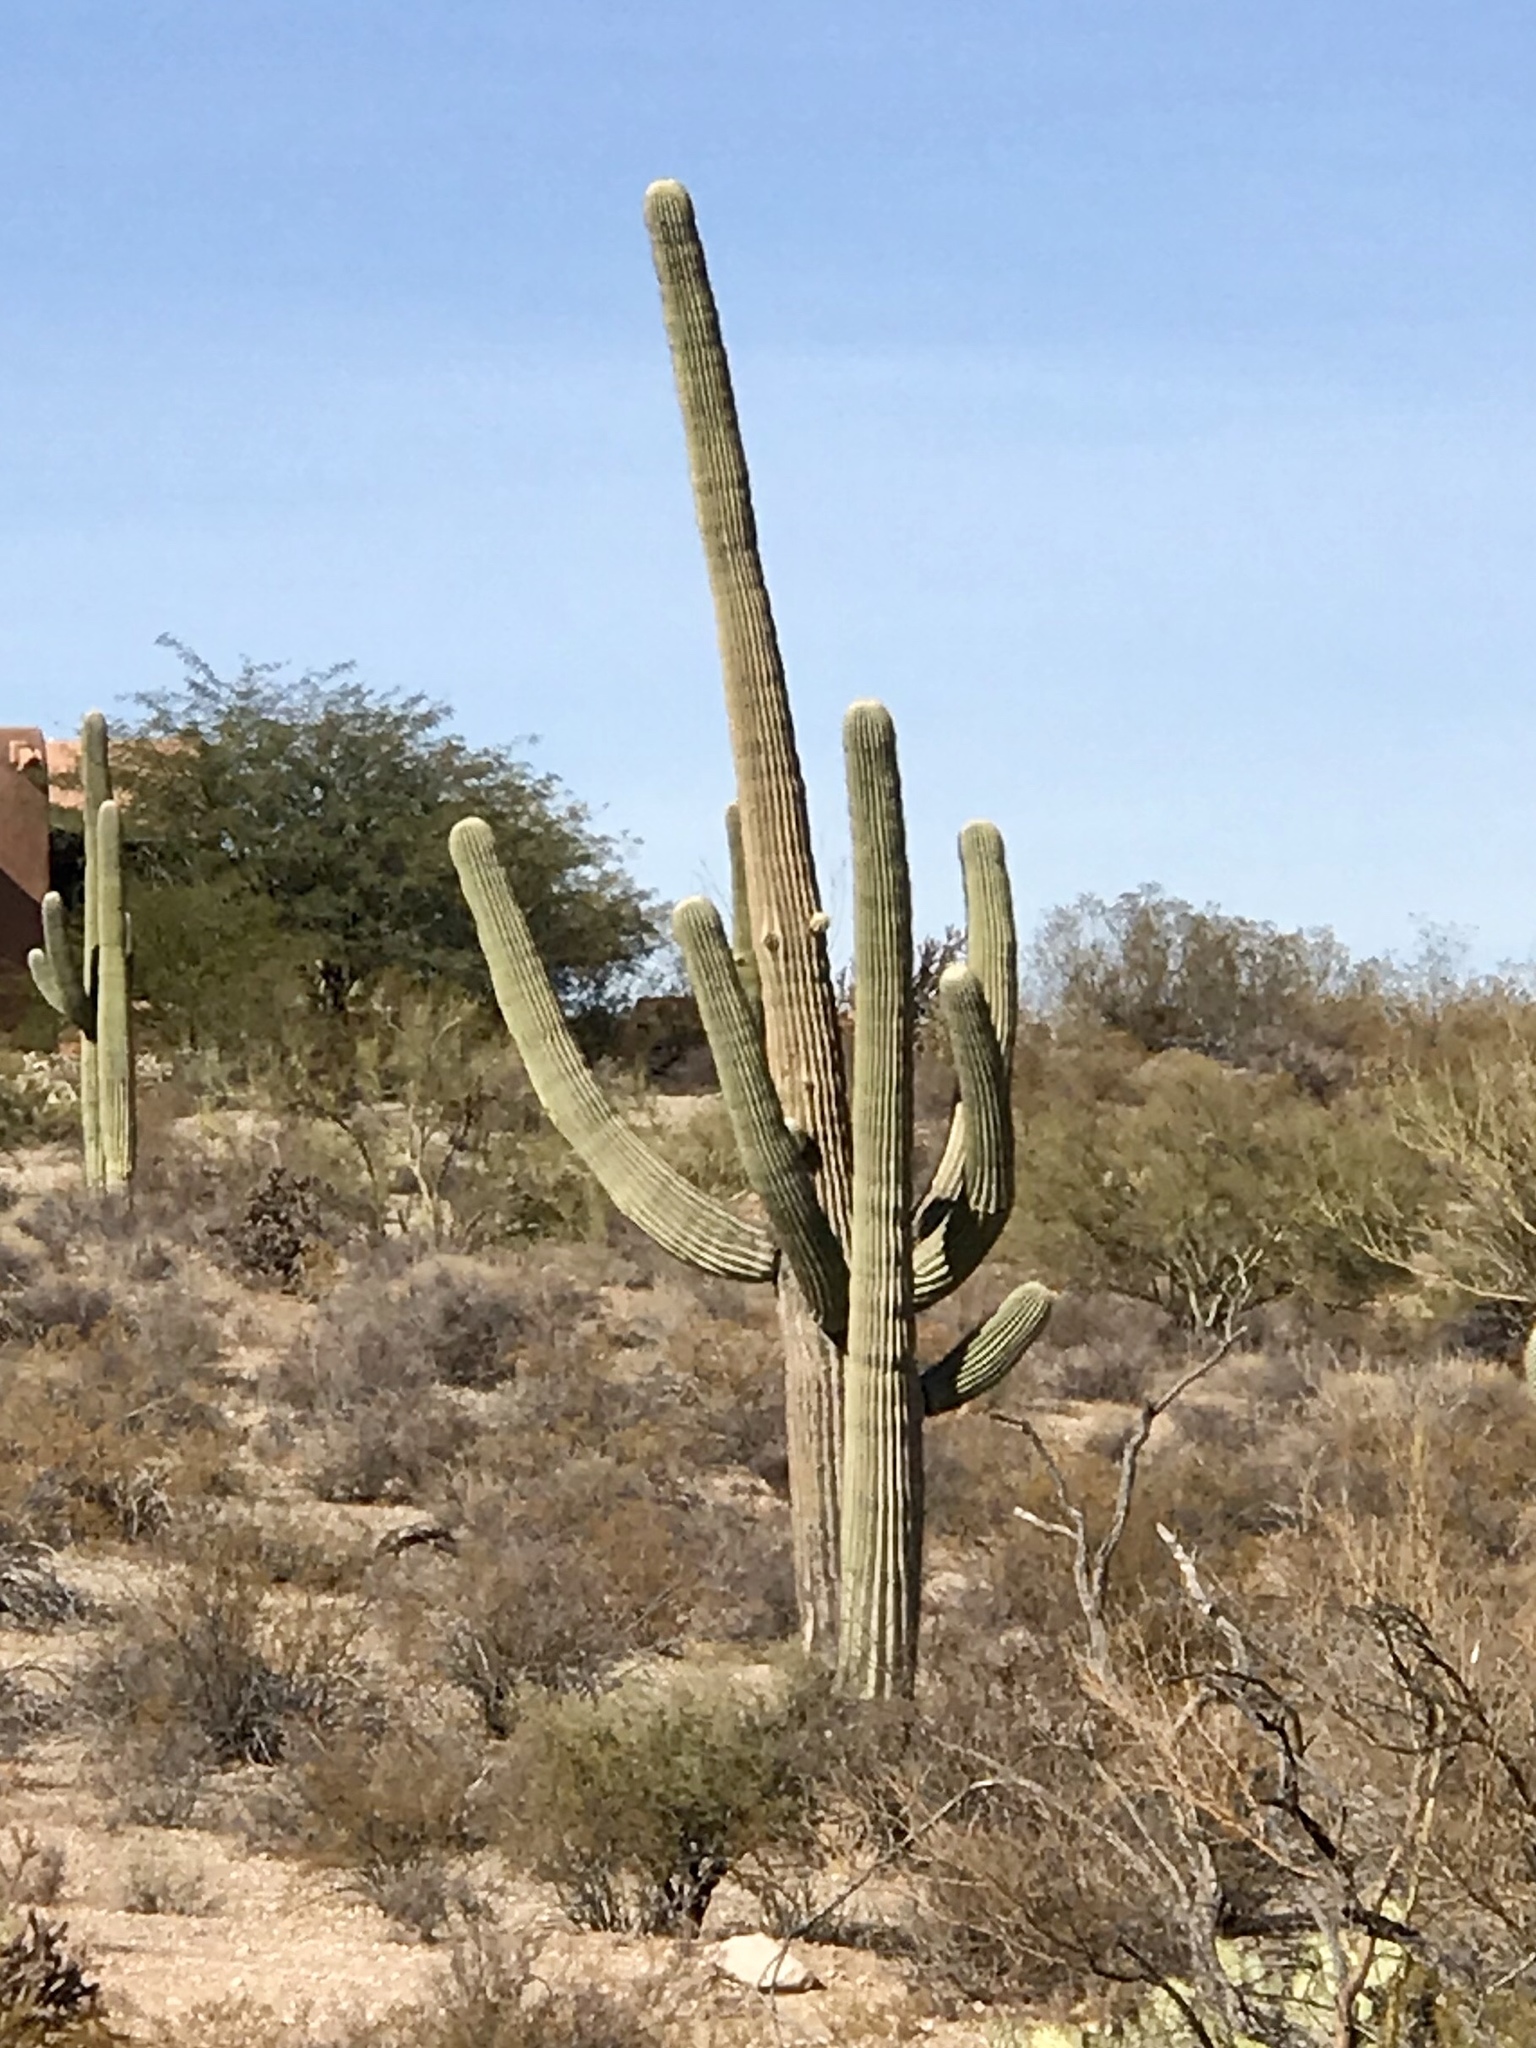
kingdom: Plantae
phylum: Tracheophyta
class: Magnoliopsida
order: Caryophyllales
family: Cactaceae
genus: Carnegiea
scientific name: Carnegiea gigantea
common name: Saguaro
